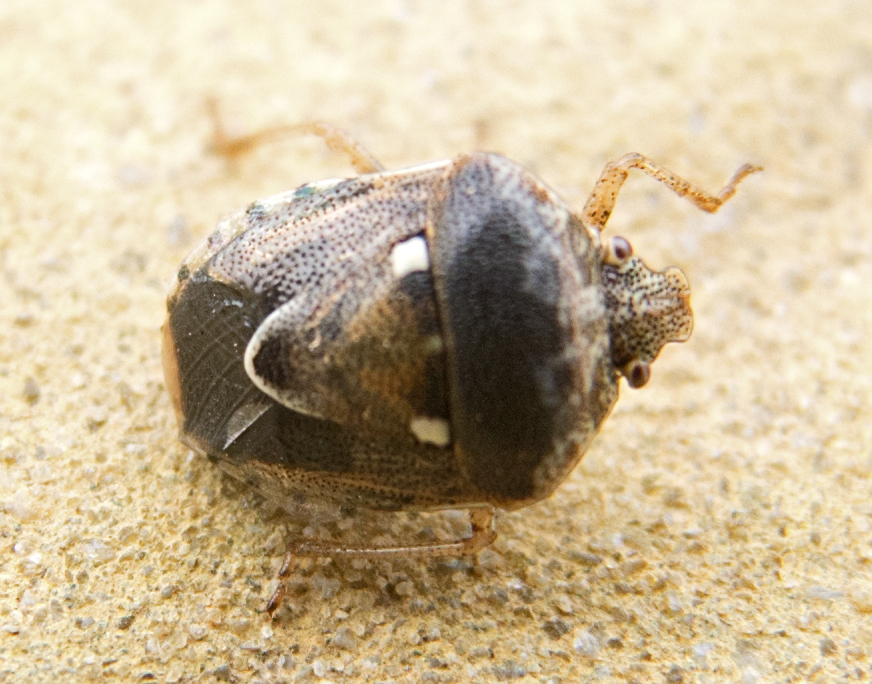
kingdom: Animalia
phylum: Arthropoda
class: Insecta
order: Hemiptera
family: Pentatomidae
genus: Stagonomus
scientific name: Stagonomus bipunctatus
